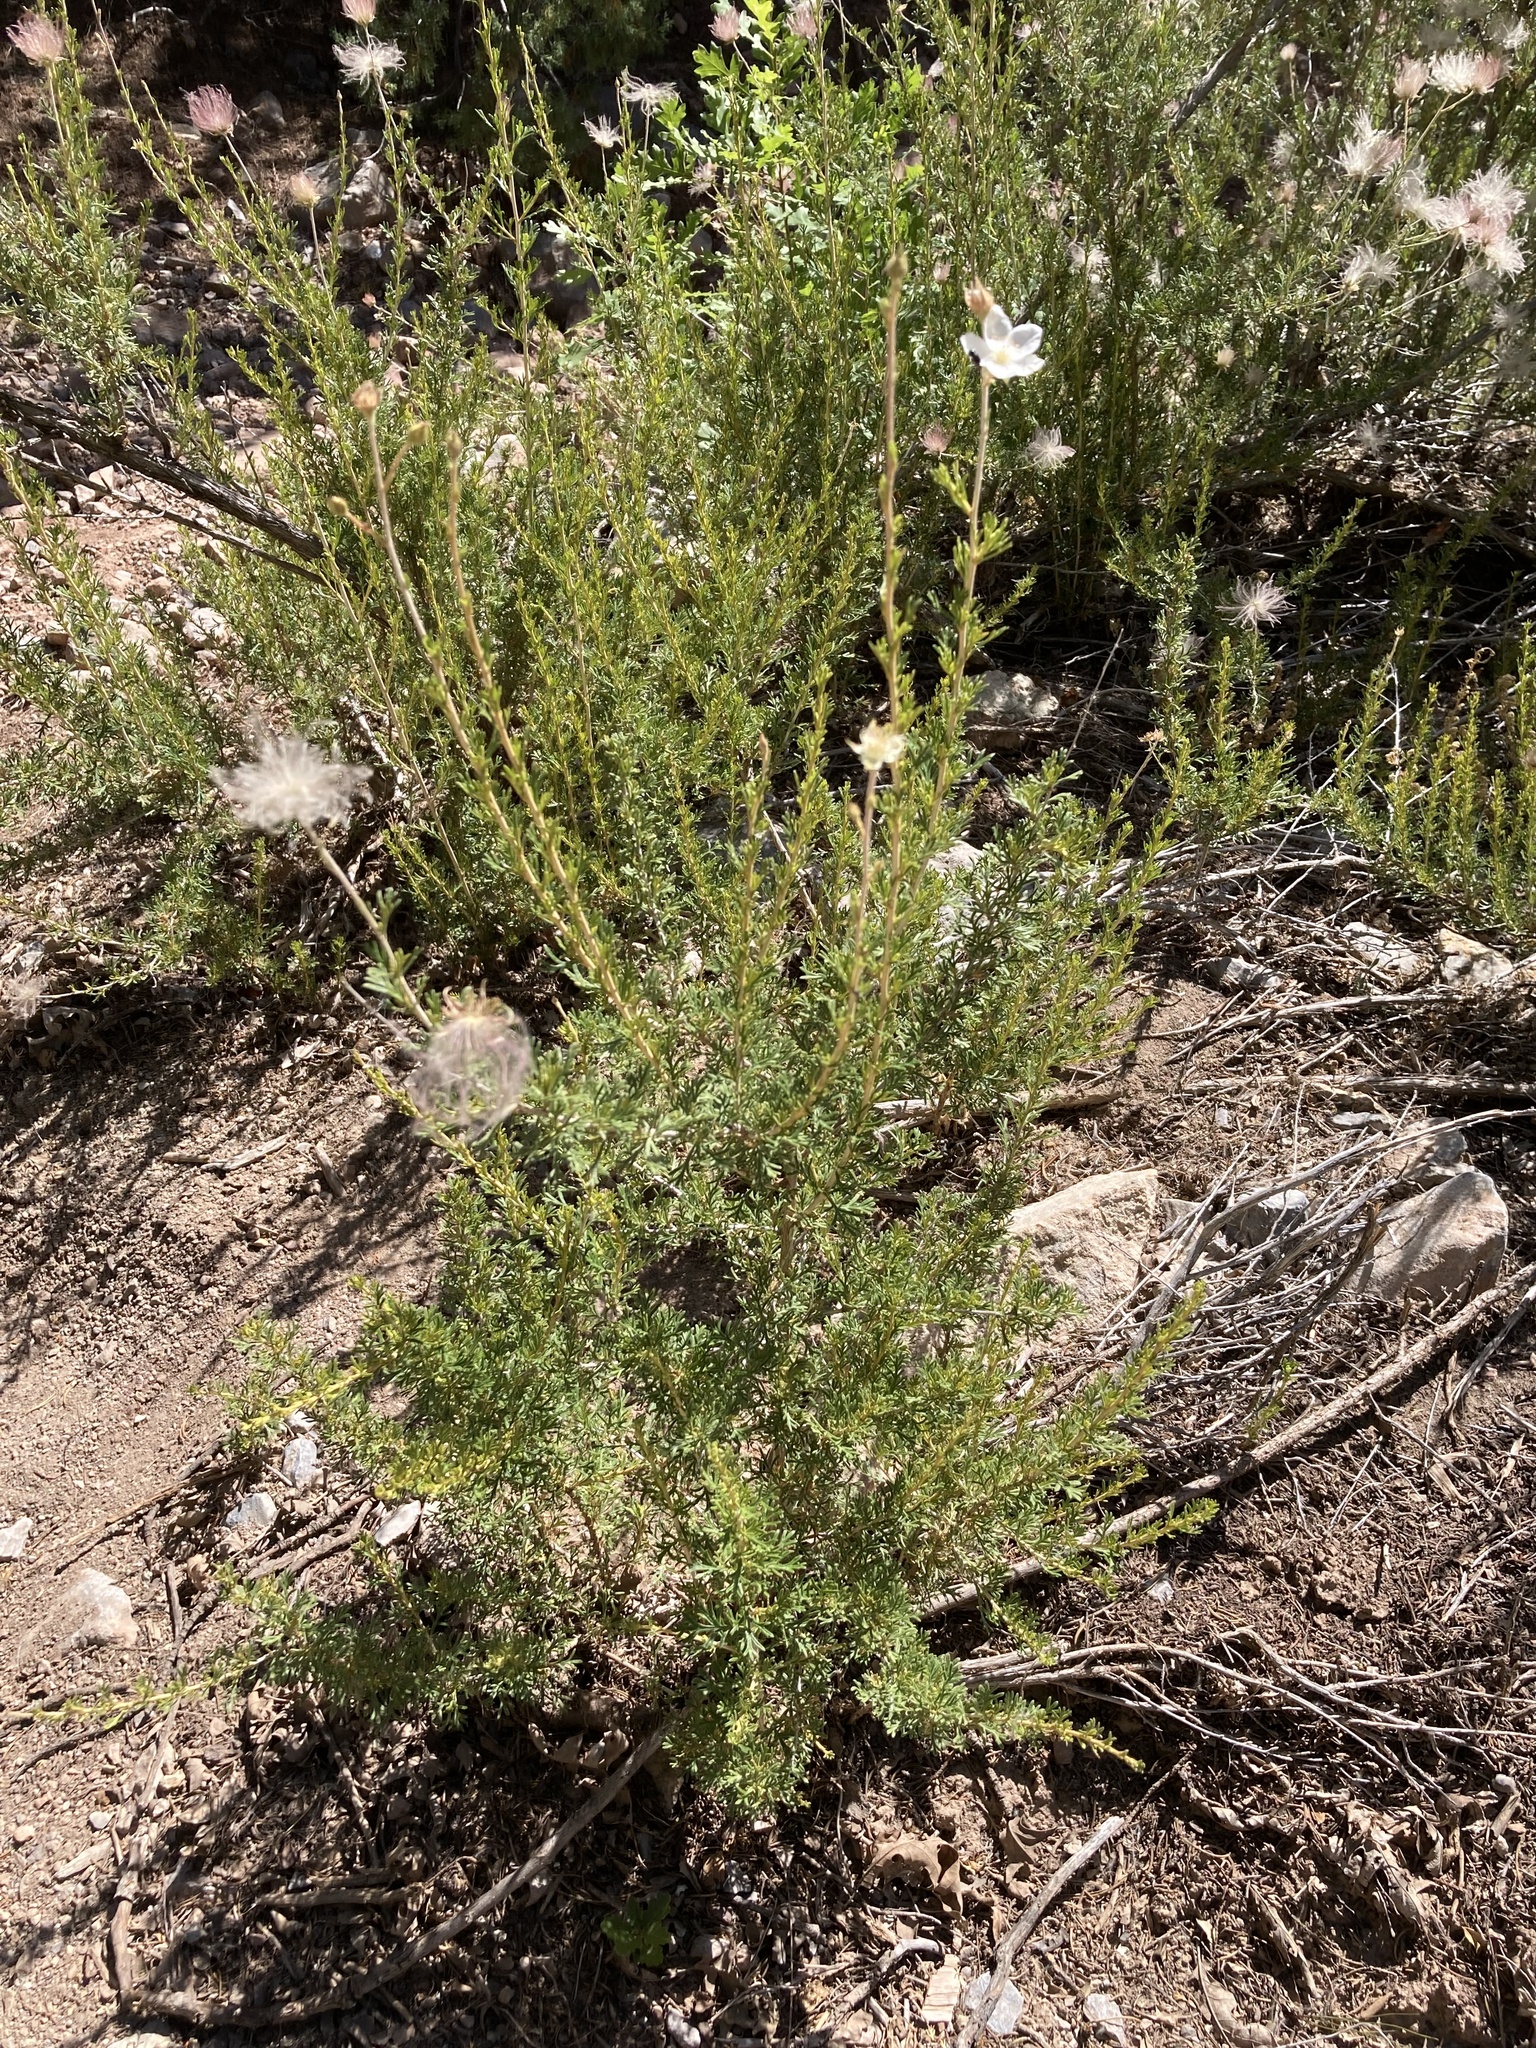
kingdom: Plantae
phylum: Tracheophyta
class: Magnoliopsida
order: Rosales
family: Rosaceae
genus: Fallugia
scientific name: Fallugia paradoxa
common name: Apache-plume
